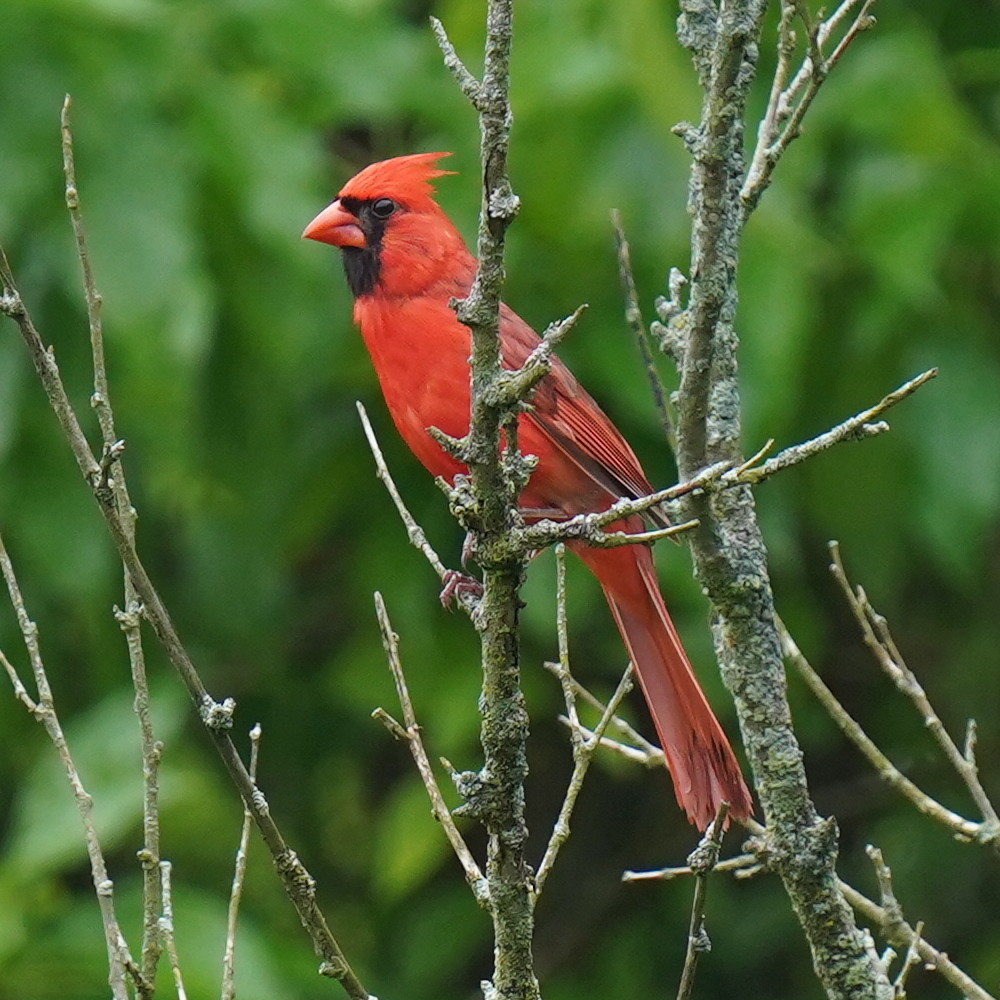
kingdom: Animalia
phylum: Chordata
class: Aves
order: Passeriformes
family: Cardinalidae
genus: Cardinalis
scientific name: Cardinalis cardinalis
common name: Northern cardinal
